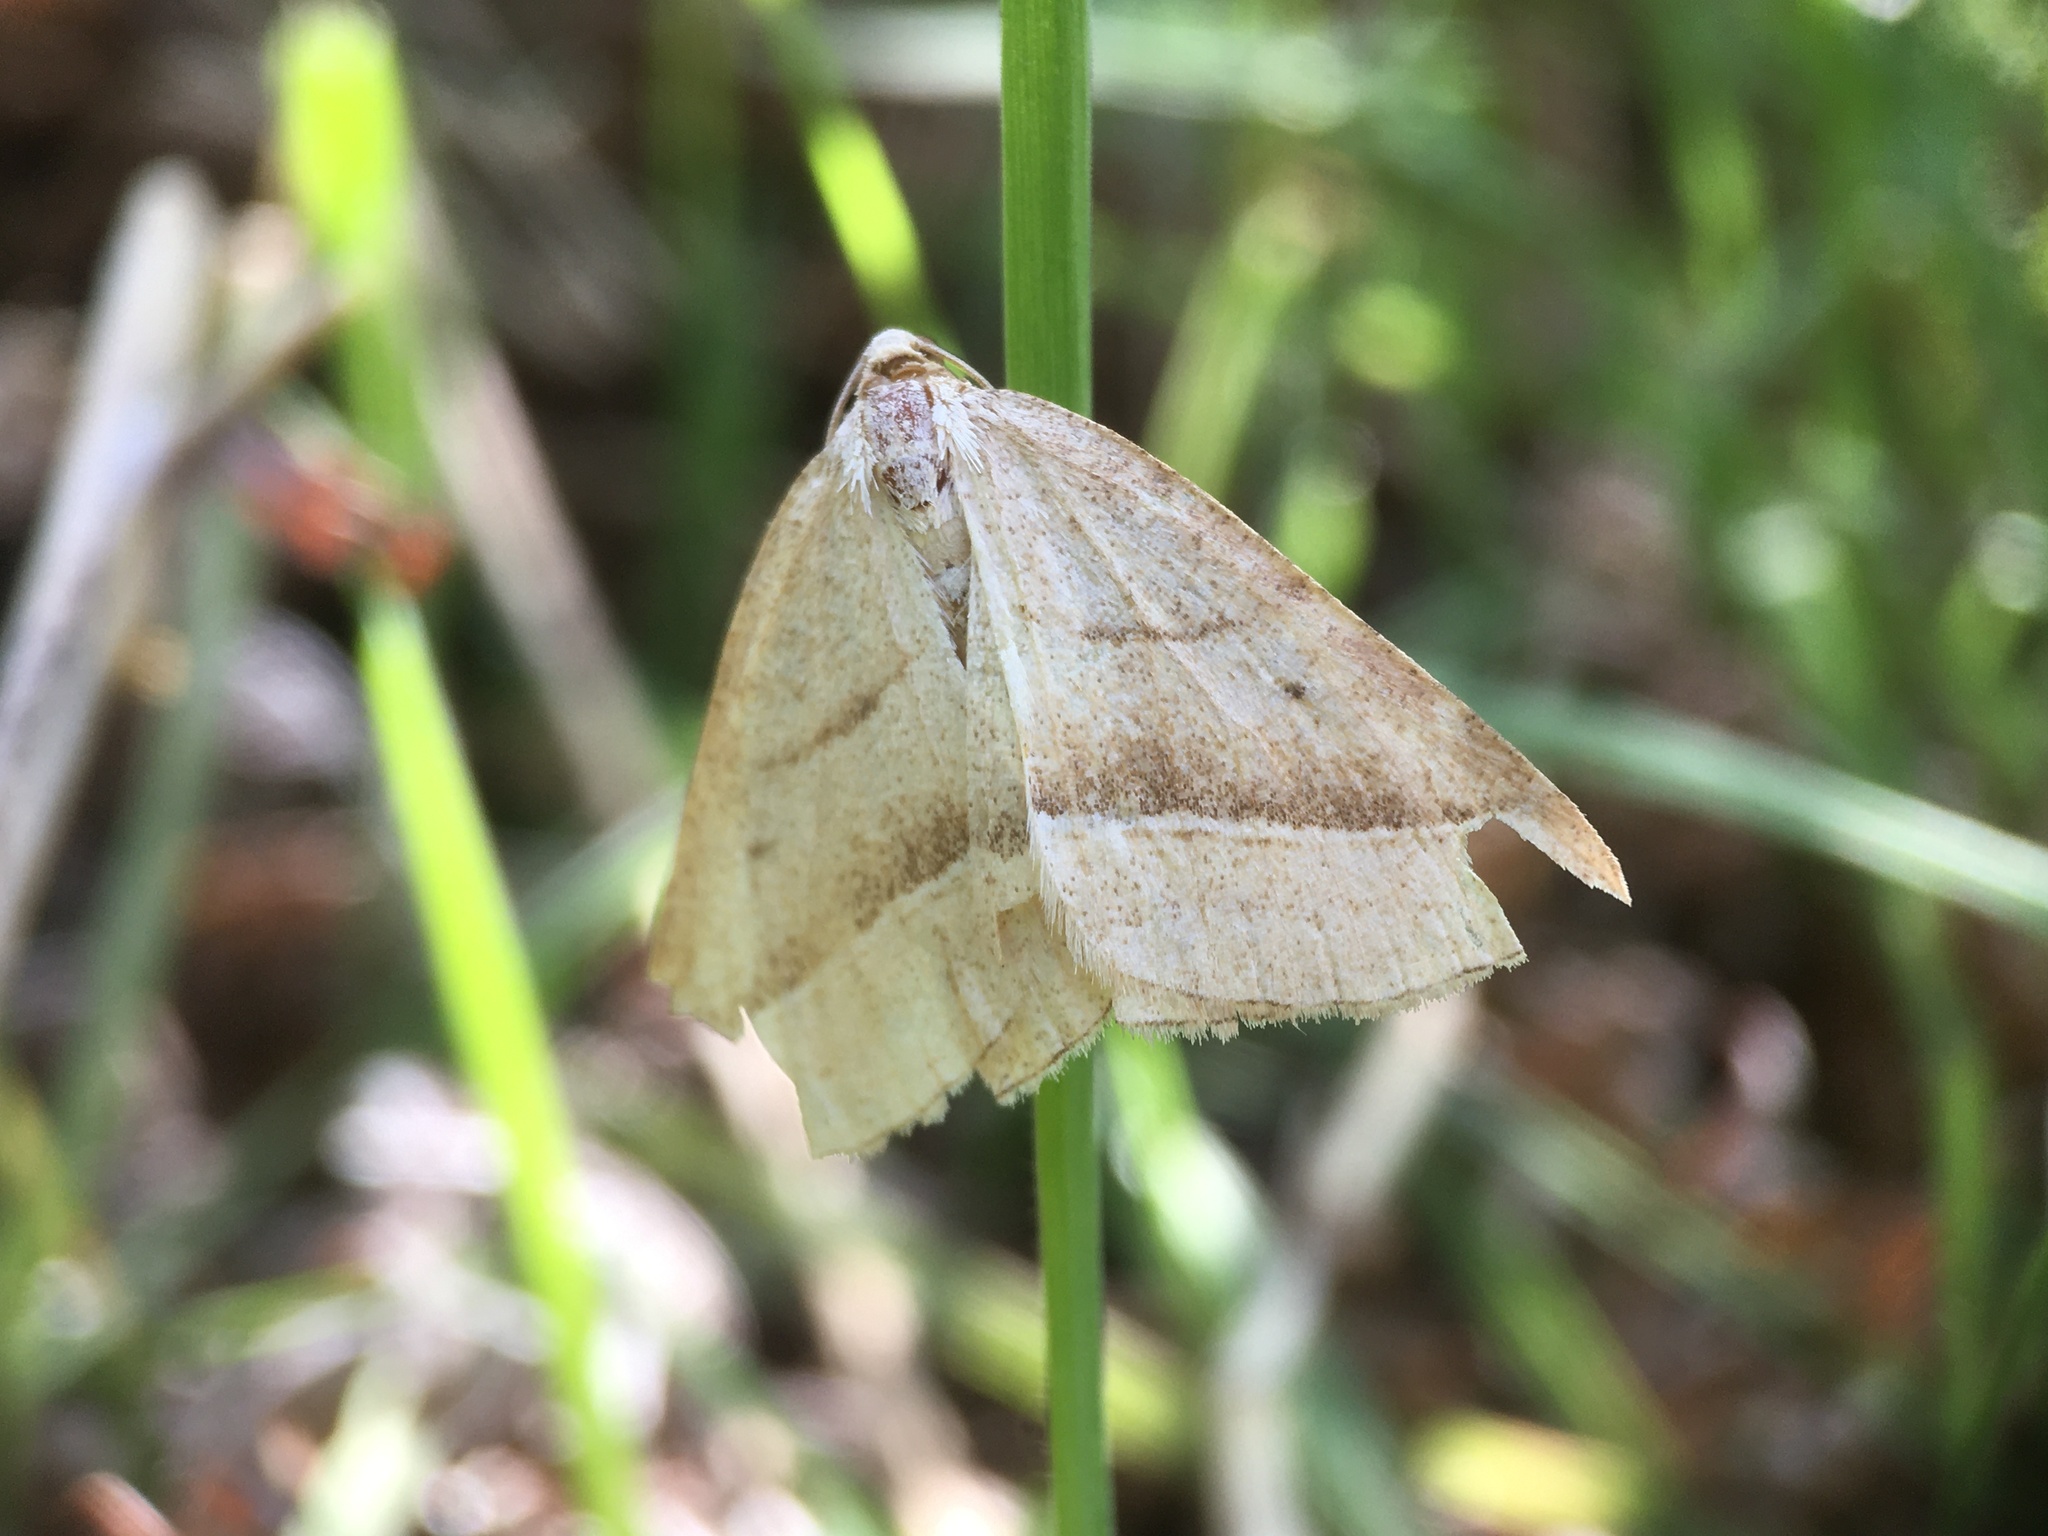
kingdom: Animalia
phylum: Arthropoda
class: Insecta
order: Lepidoptera
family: Pterophoridae
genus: Pterophorus
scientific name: Pterophorus Petrophora chlorosata
